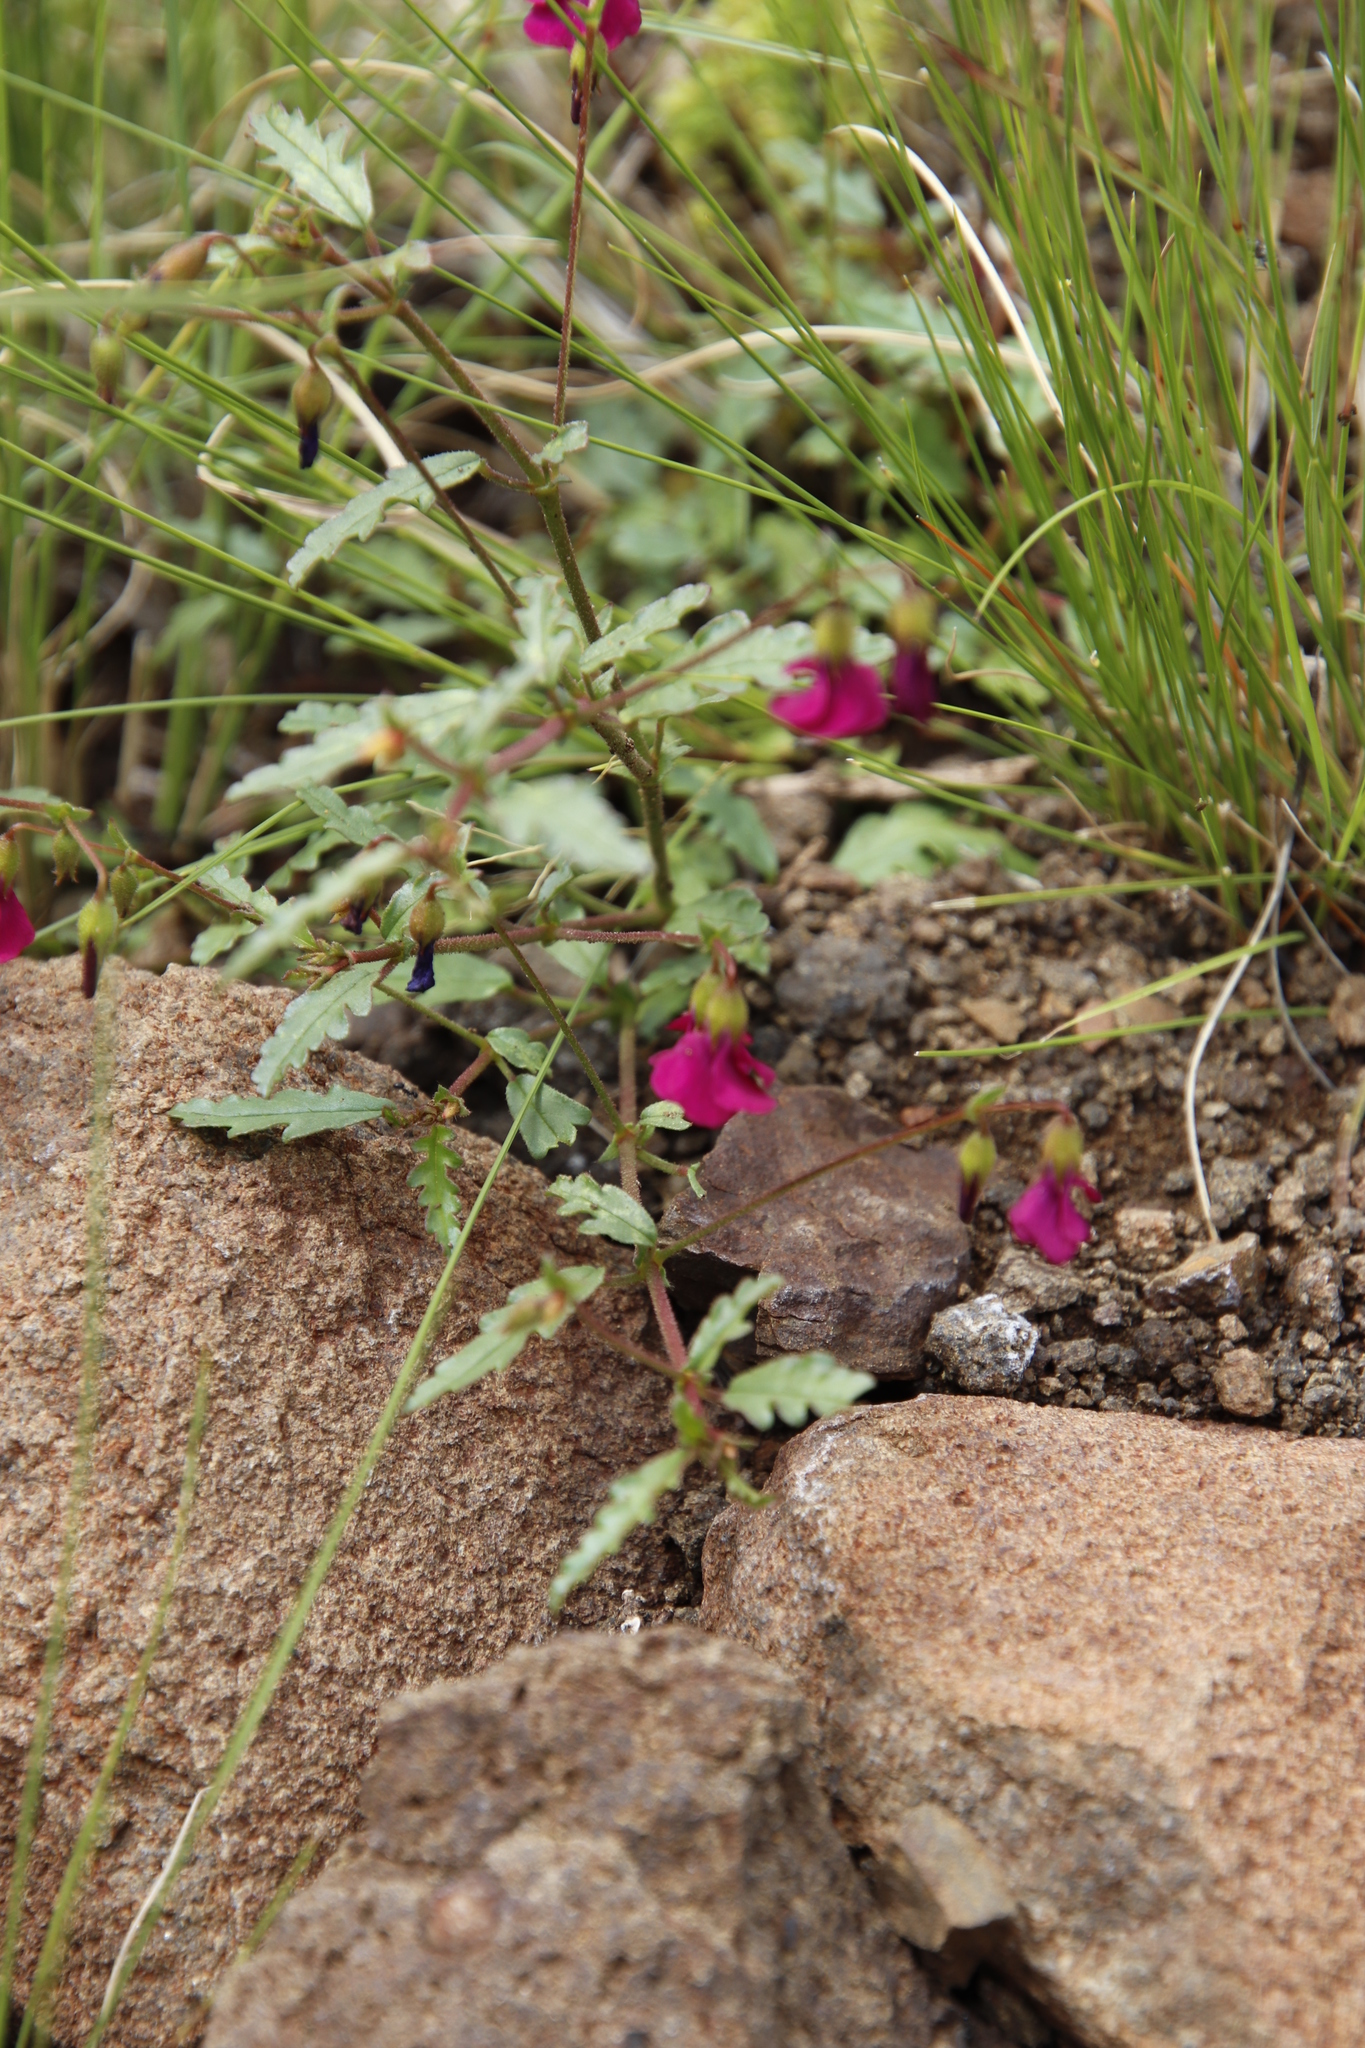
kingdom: Plantae
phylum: Tracheophyta
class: Magnoliopsida
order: Malvales
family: Malvaceae
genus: Hermannia
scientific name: Hermannia coccocarpa
